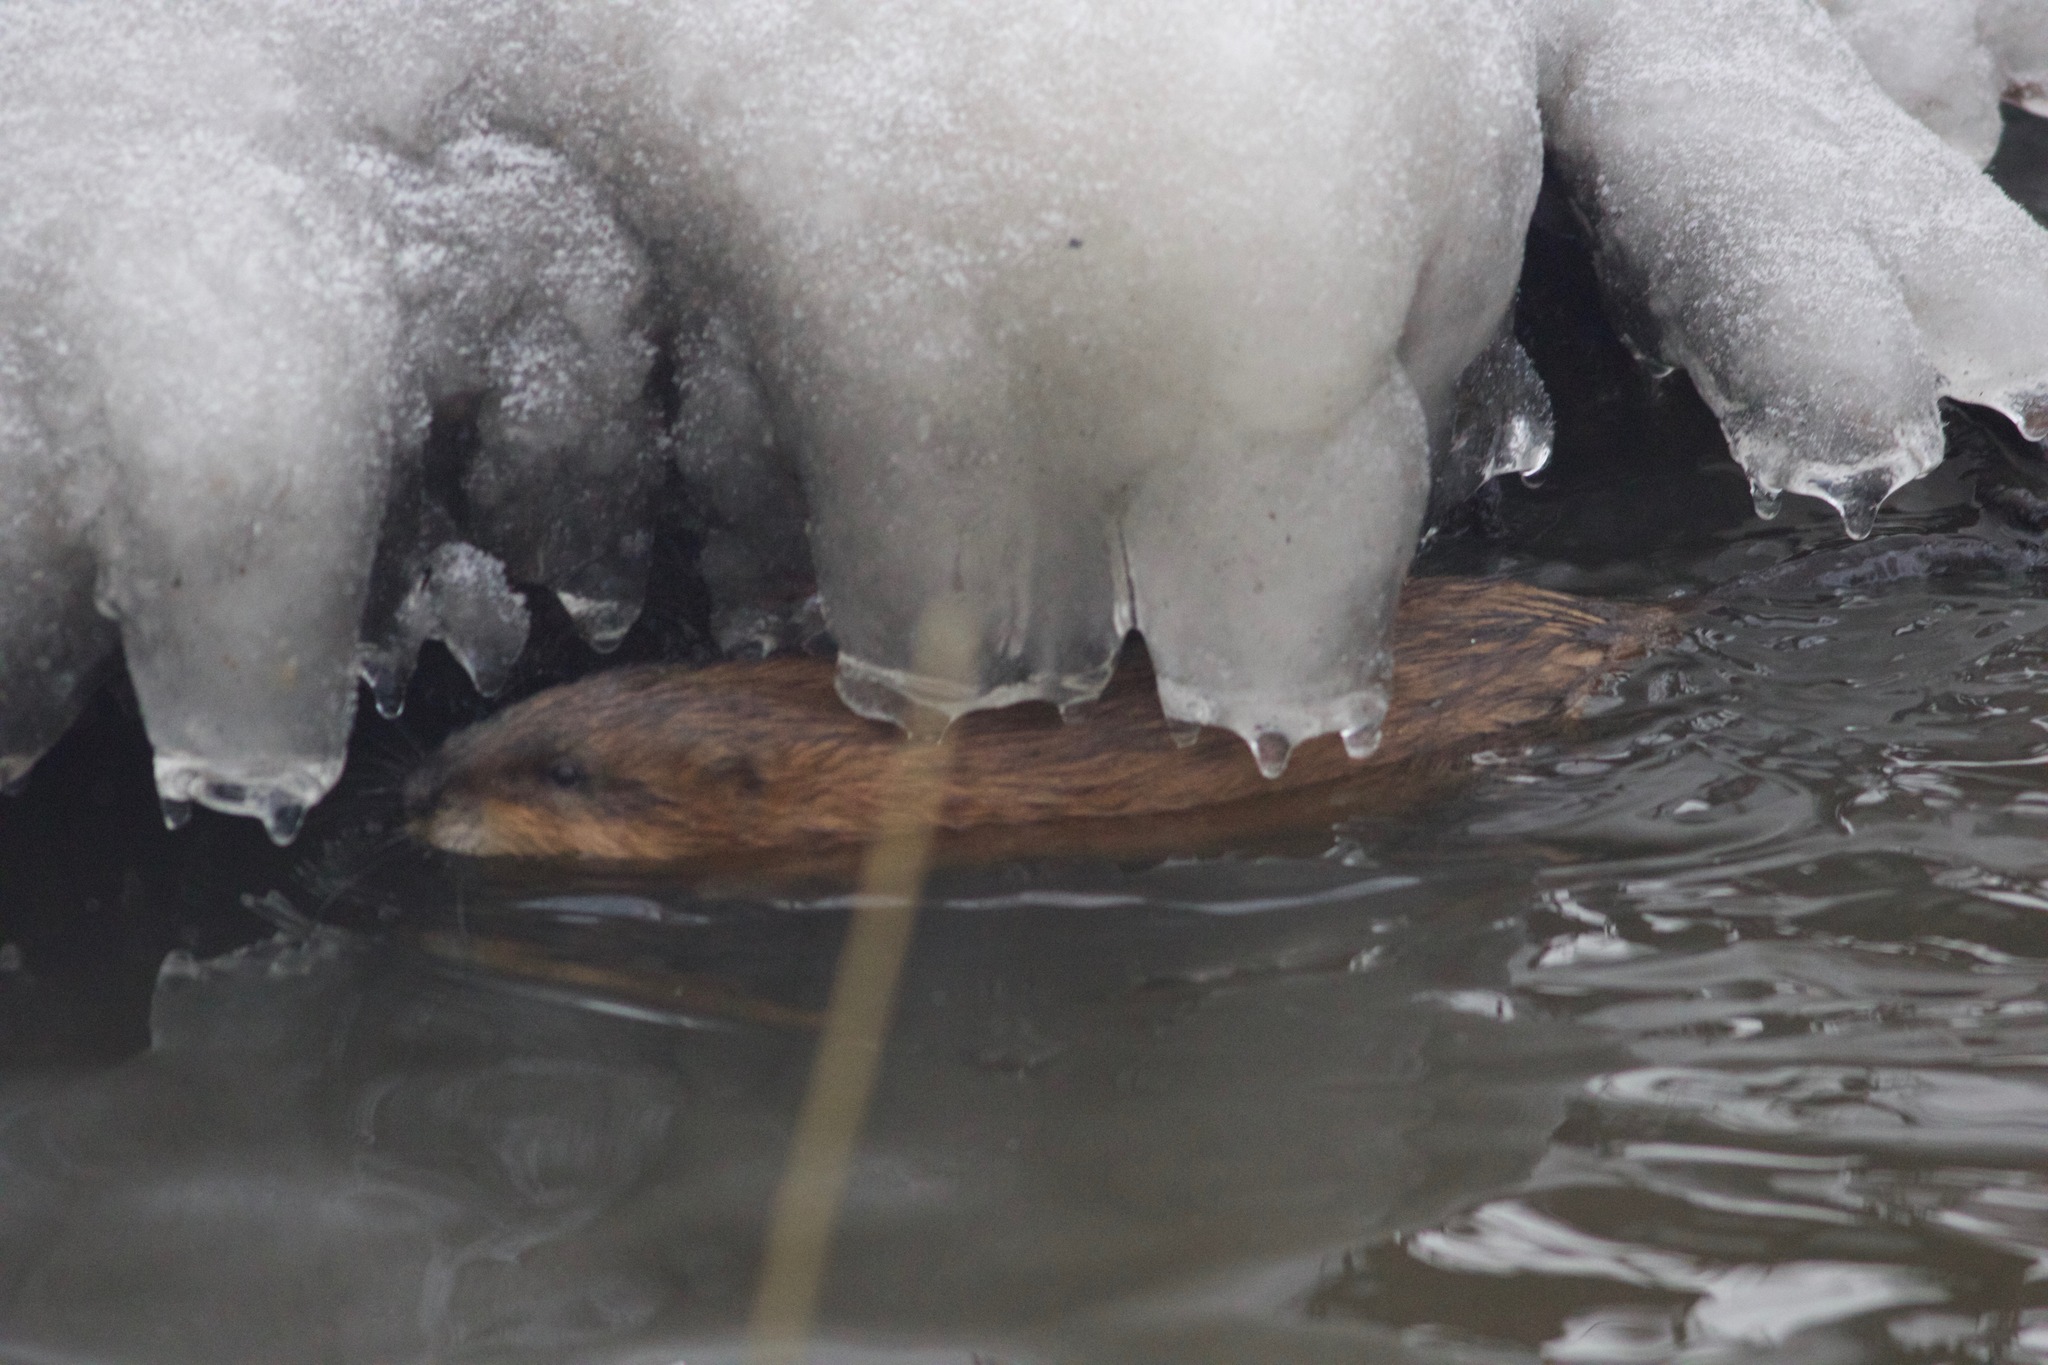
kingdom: Animalia
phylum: Chordata
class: Mammalia
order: Rodentia
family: Cricetidae
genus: Ondatra
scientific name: Ondatra zibethicus
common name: Muskrat
